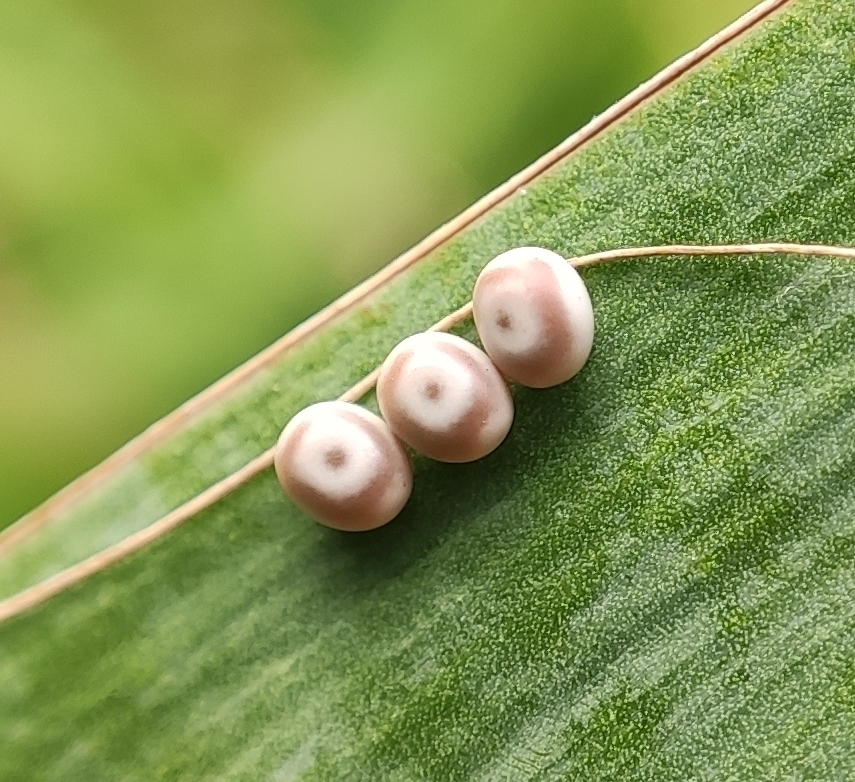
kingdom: Animalia
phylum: Arthropoda
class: Insecta
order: Lepidoptera
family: Lasiocampidae
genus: Euthrix
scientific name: Euthrix potatoria
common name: Drinker
